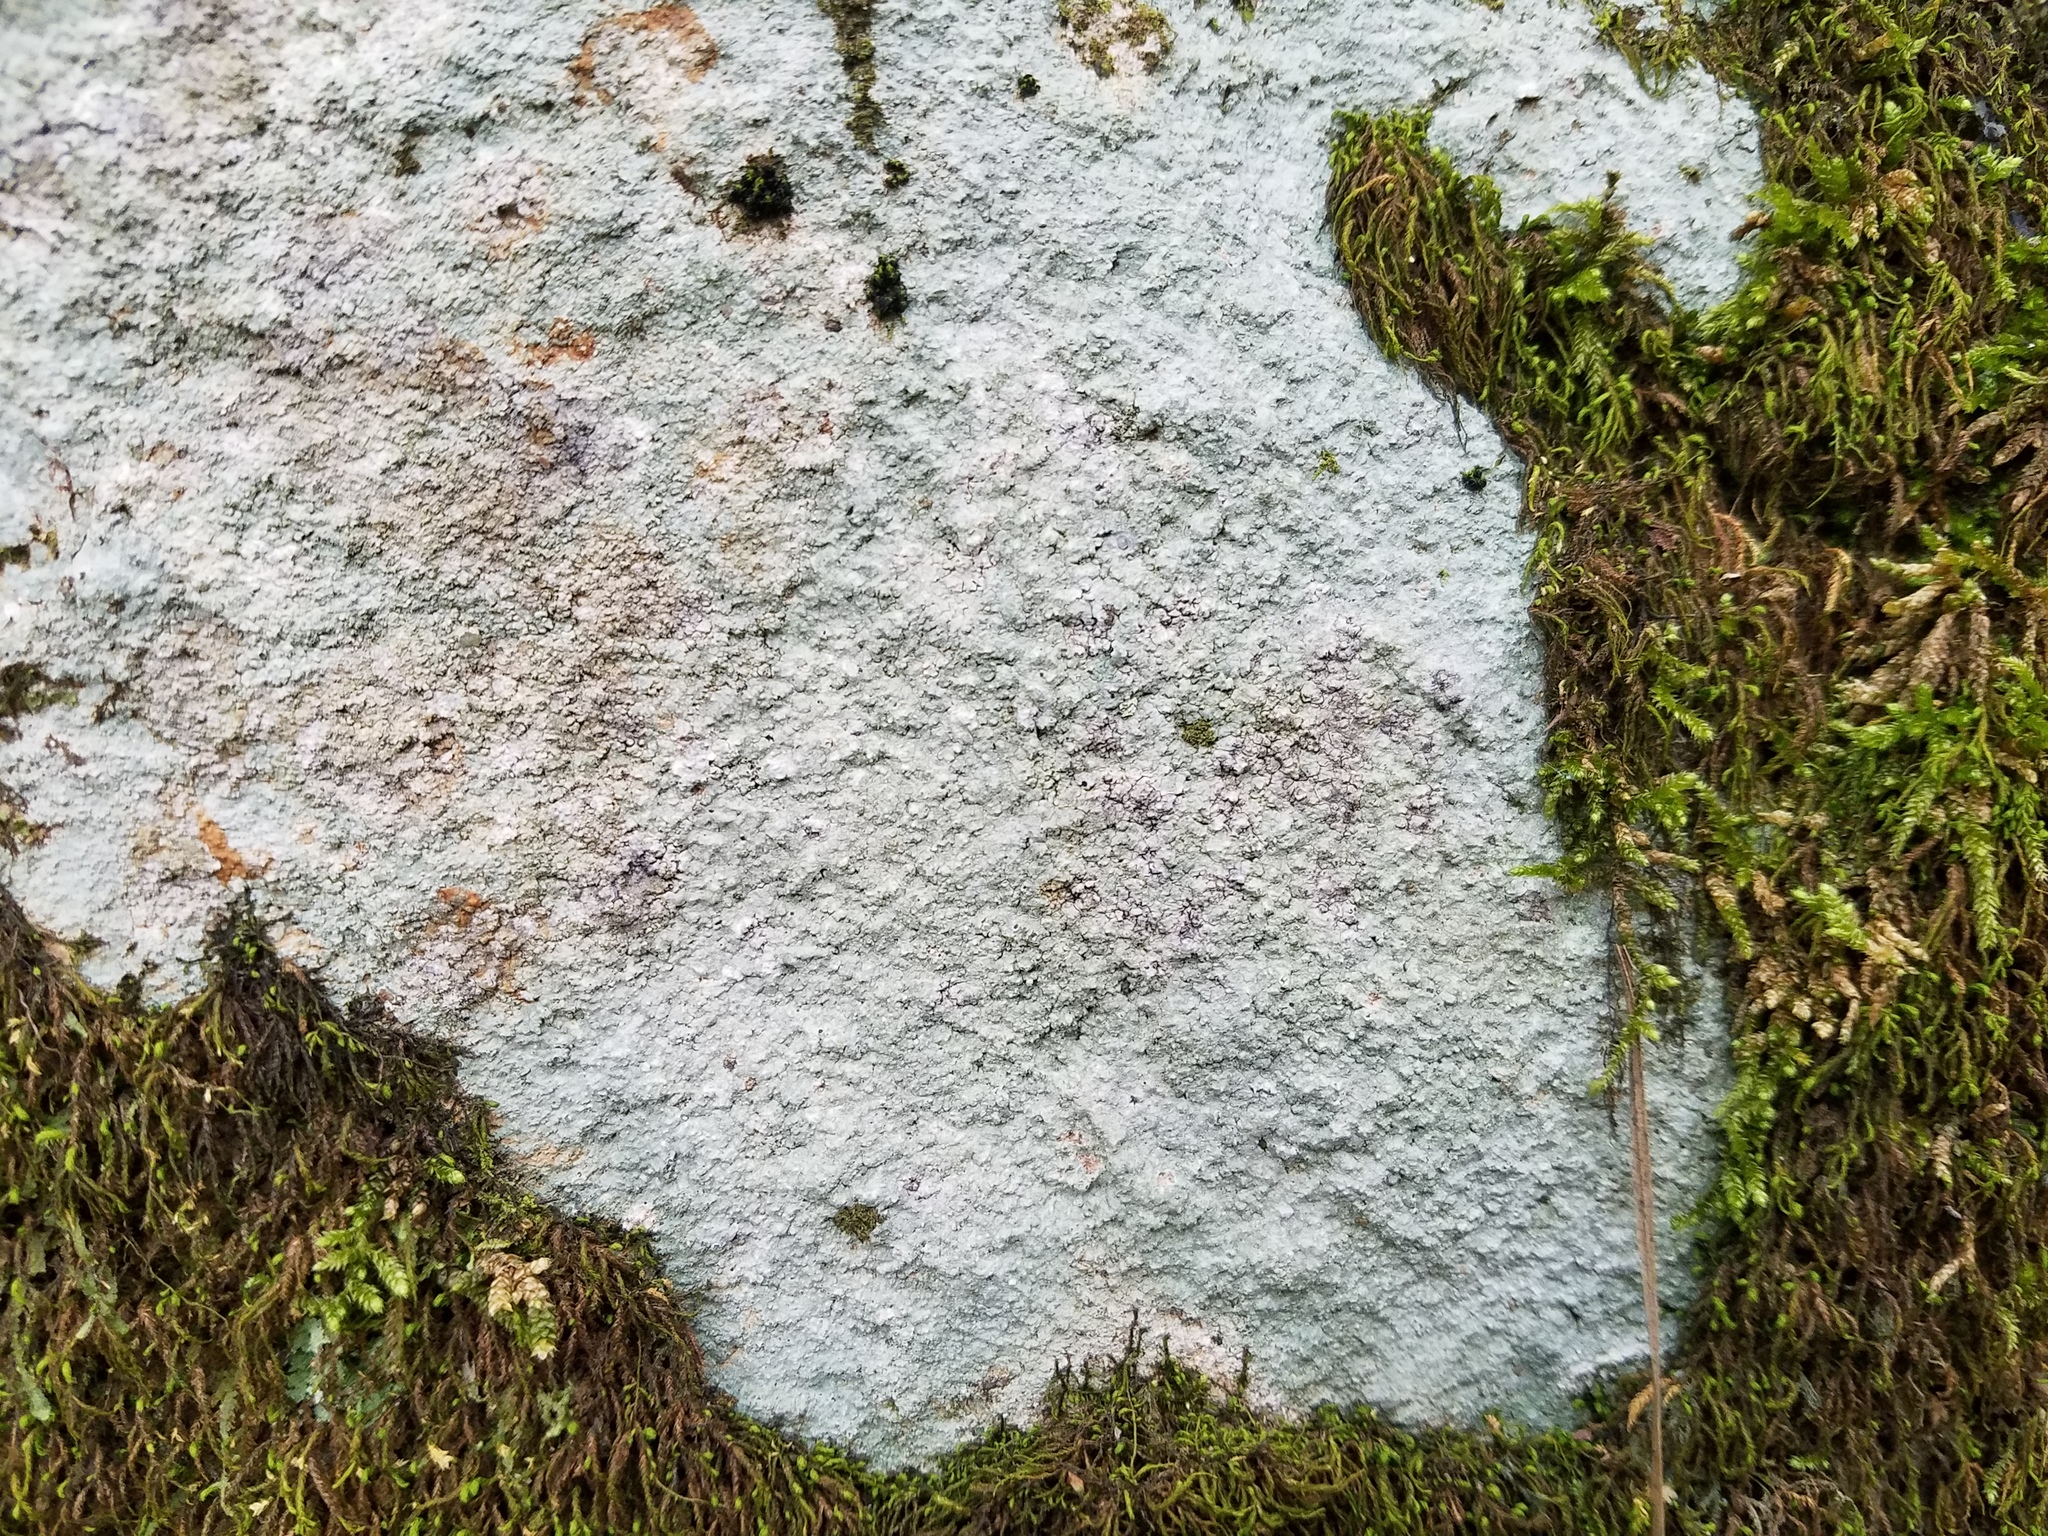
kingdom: Fungi
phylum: Ascomycota
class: Lecanoromycetes
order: Pertusariales
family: Pertusariaceae
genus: Pertusaria
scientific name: Pertusaria plittiana
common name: Rock wart lichen
